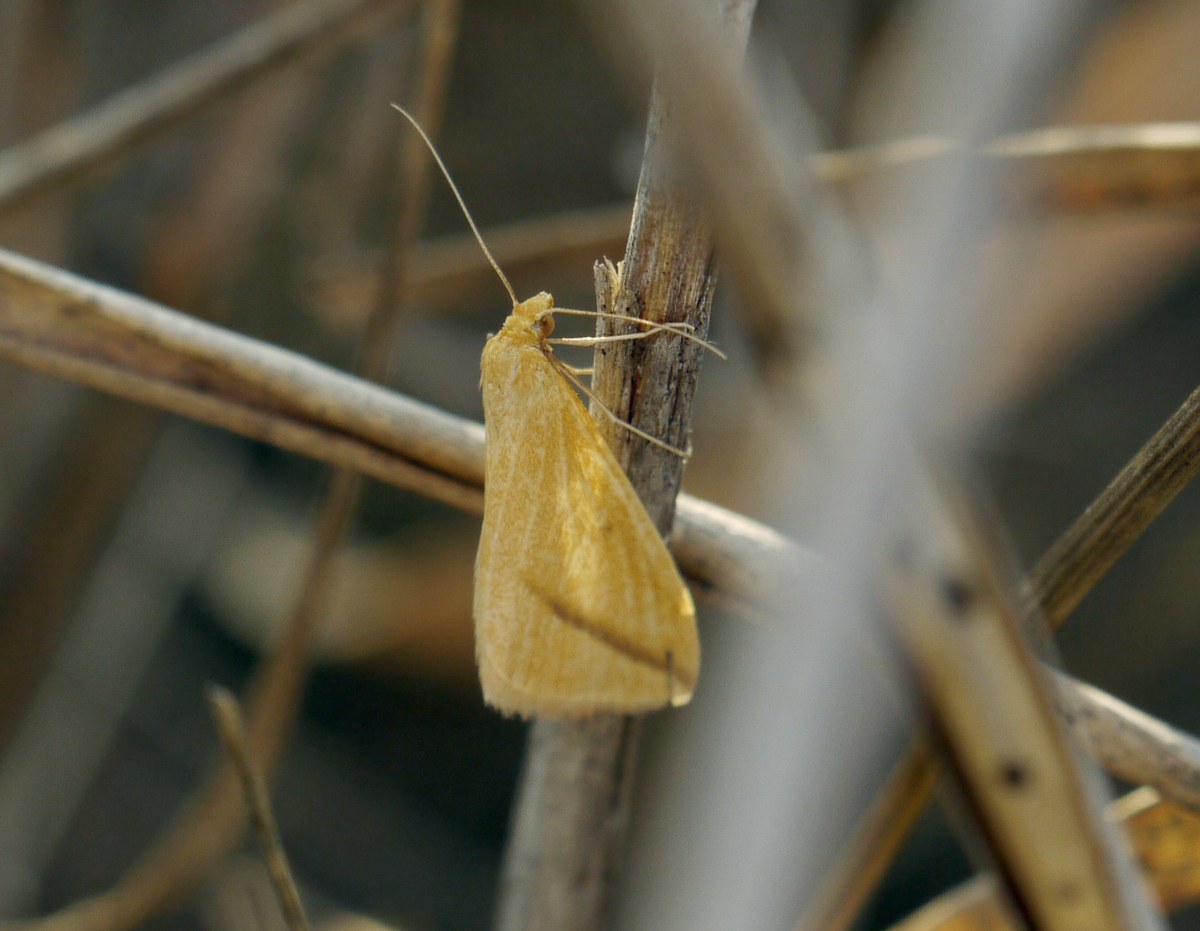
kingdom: Animalia
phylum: Arthropoda
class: Insecta
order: Lepidoptera
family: Geometridae
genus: Rhodometra
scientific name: Rhodometra sacraria
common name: Vestal
